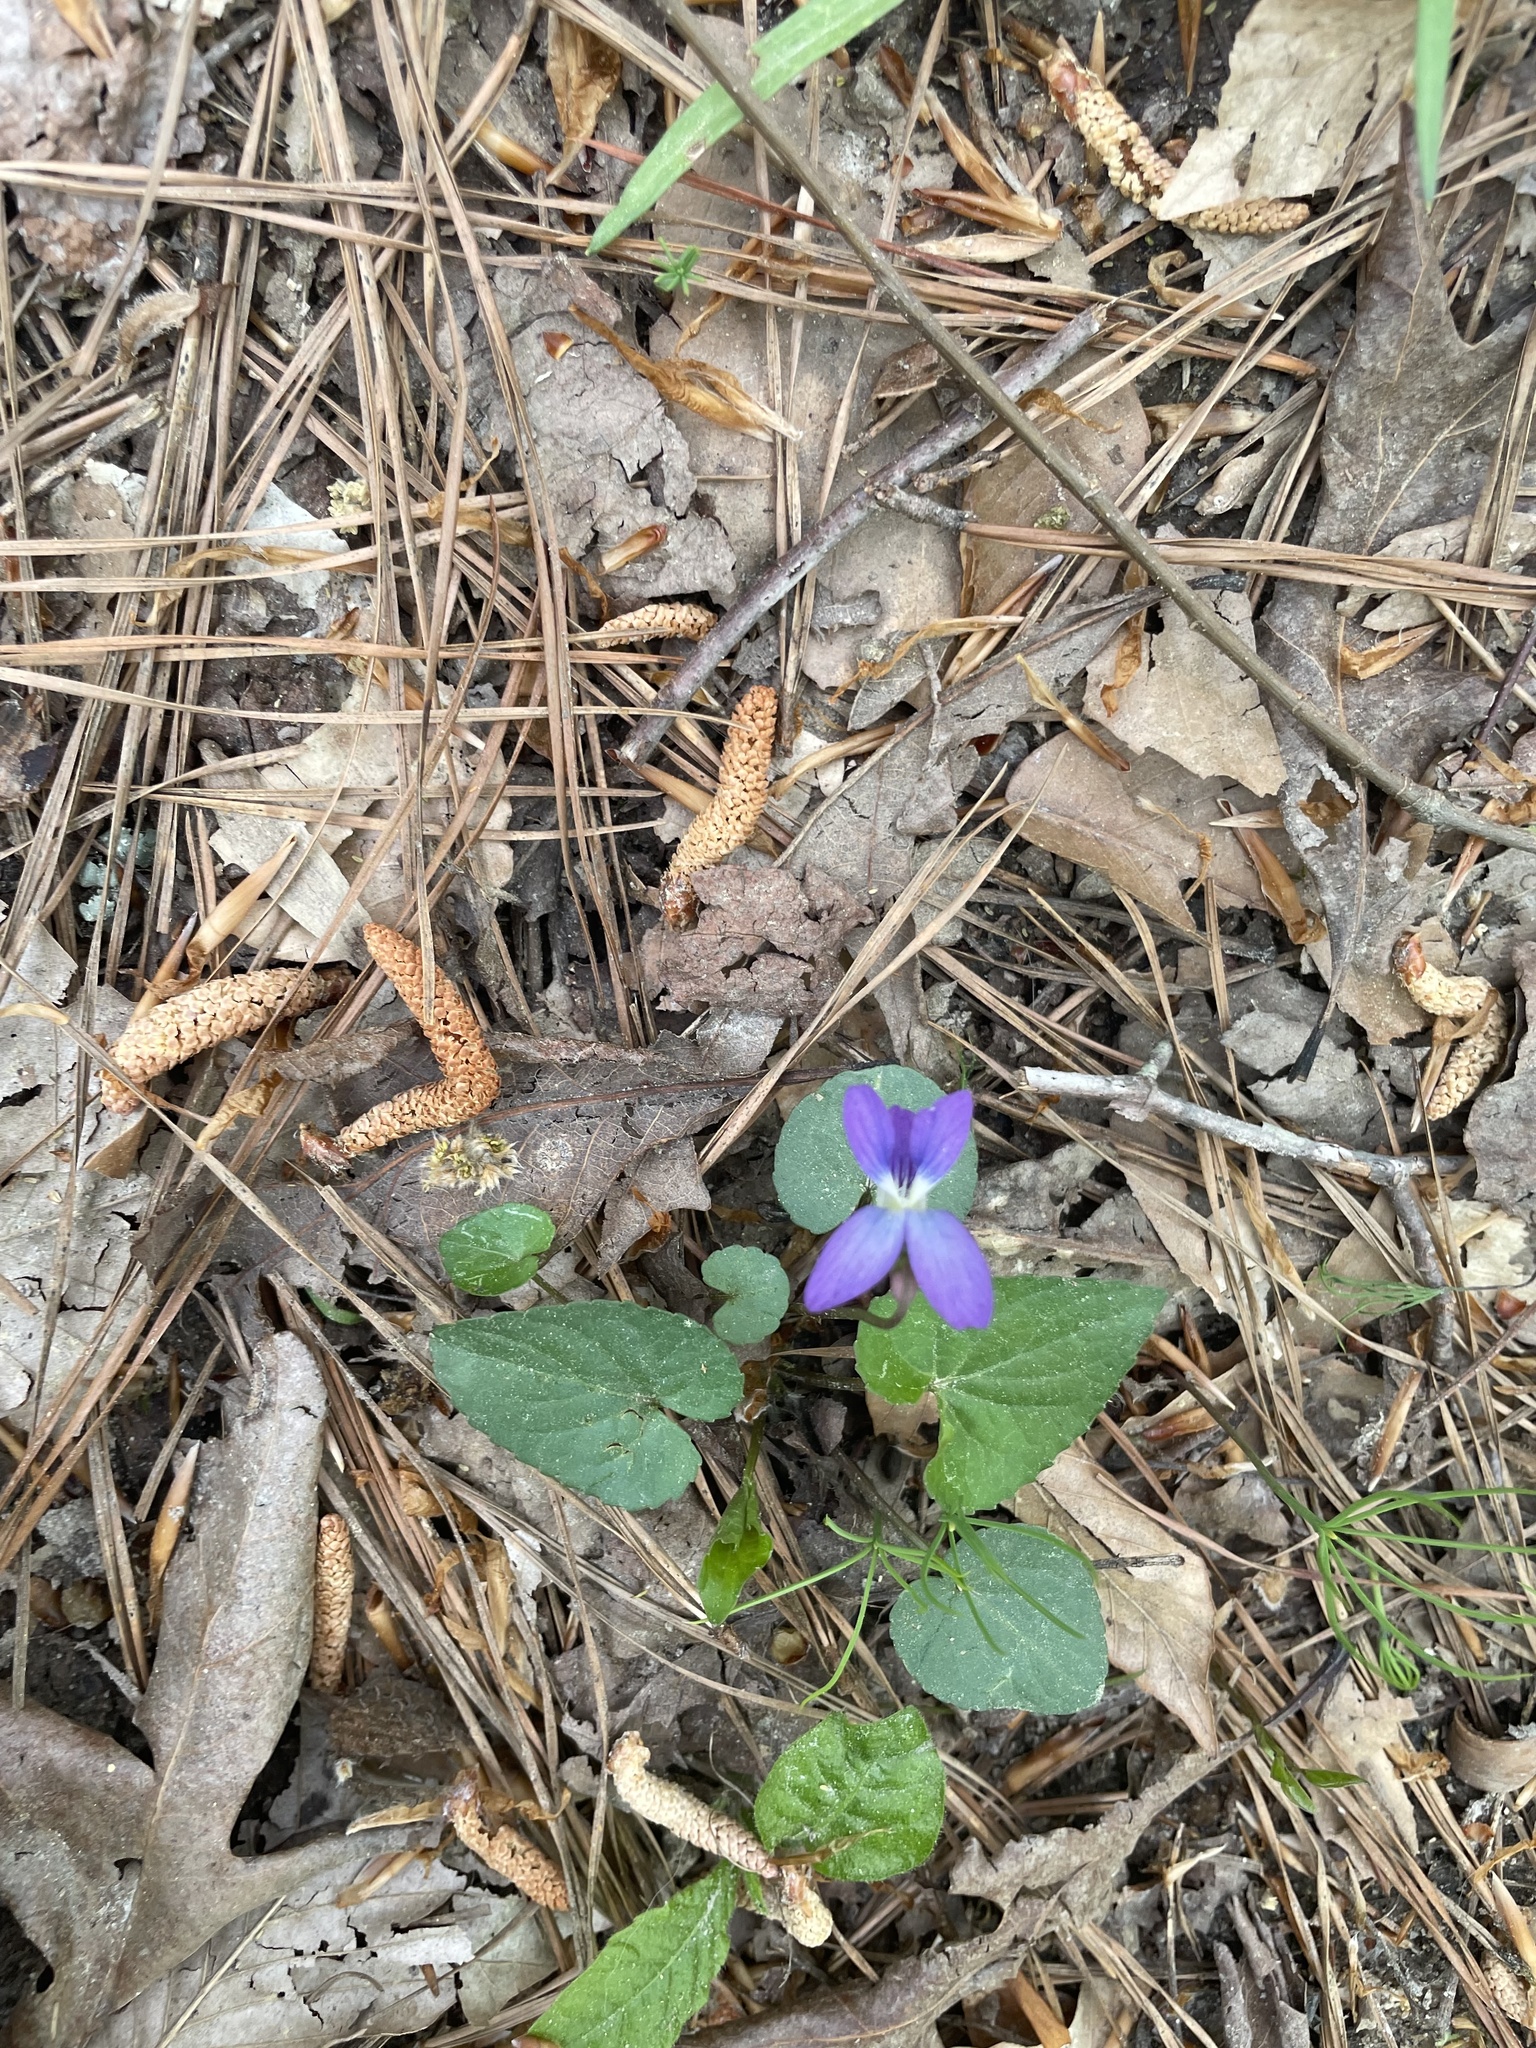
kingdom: Plantae
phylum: Tracheophyta
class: Magnoliopsida
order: Malpighiales
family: Violaceae
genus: Viola
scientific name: Viola affinis
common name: Leconte's violet
